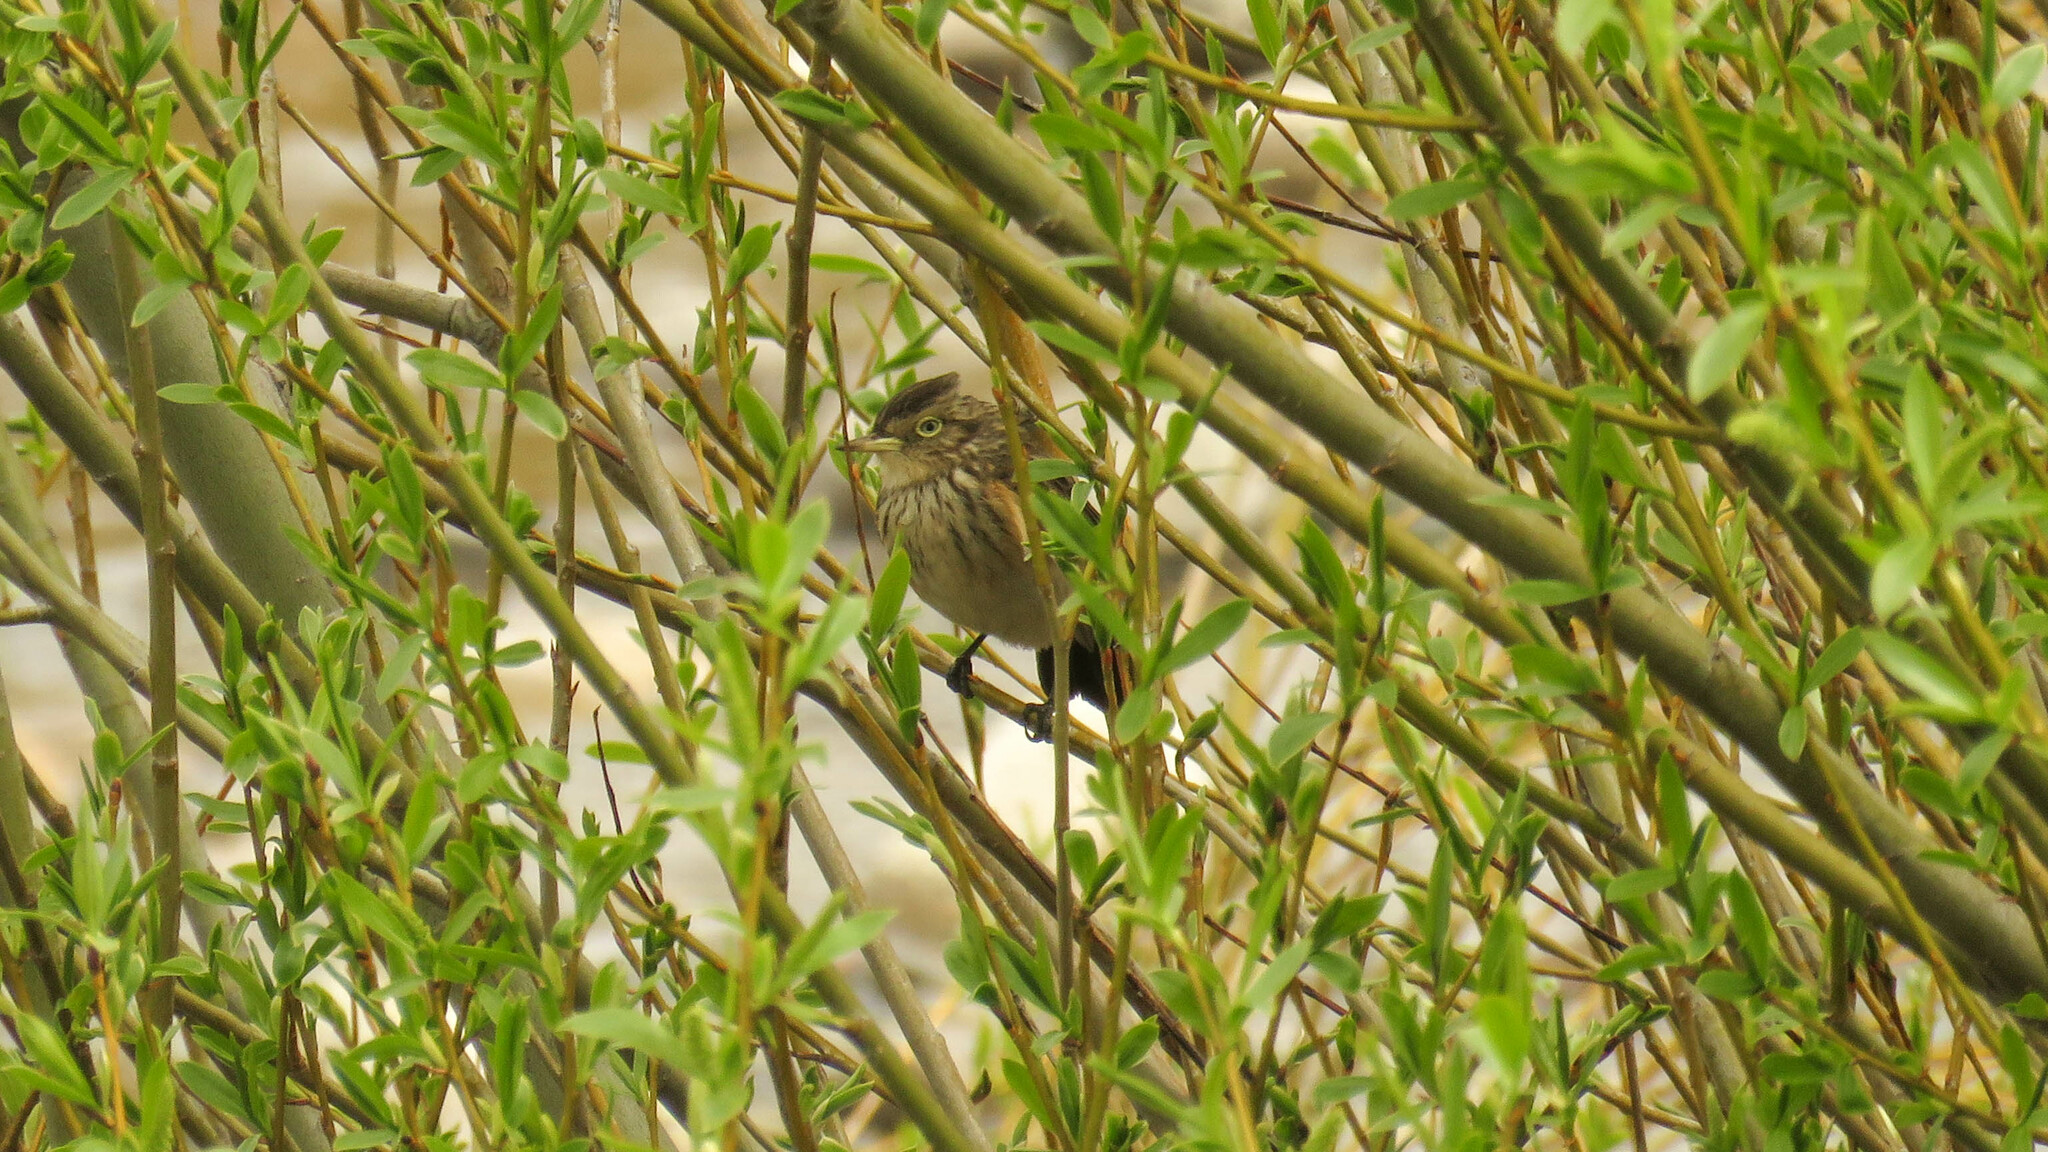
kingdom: Animalia
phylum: Chordata
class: Aves
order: Passeriformes
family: Tyrannidae
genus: Hymenops
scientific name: Hymenops perspicillatus
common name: Spectacled tyrant
